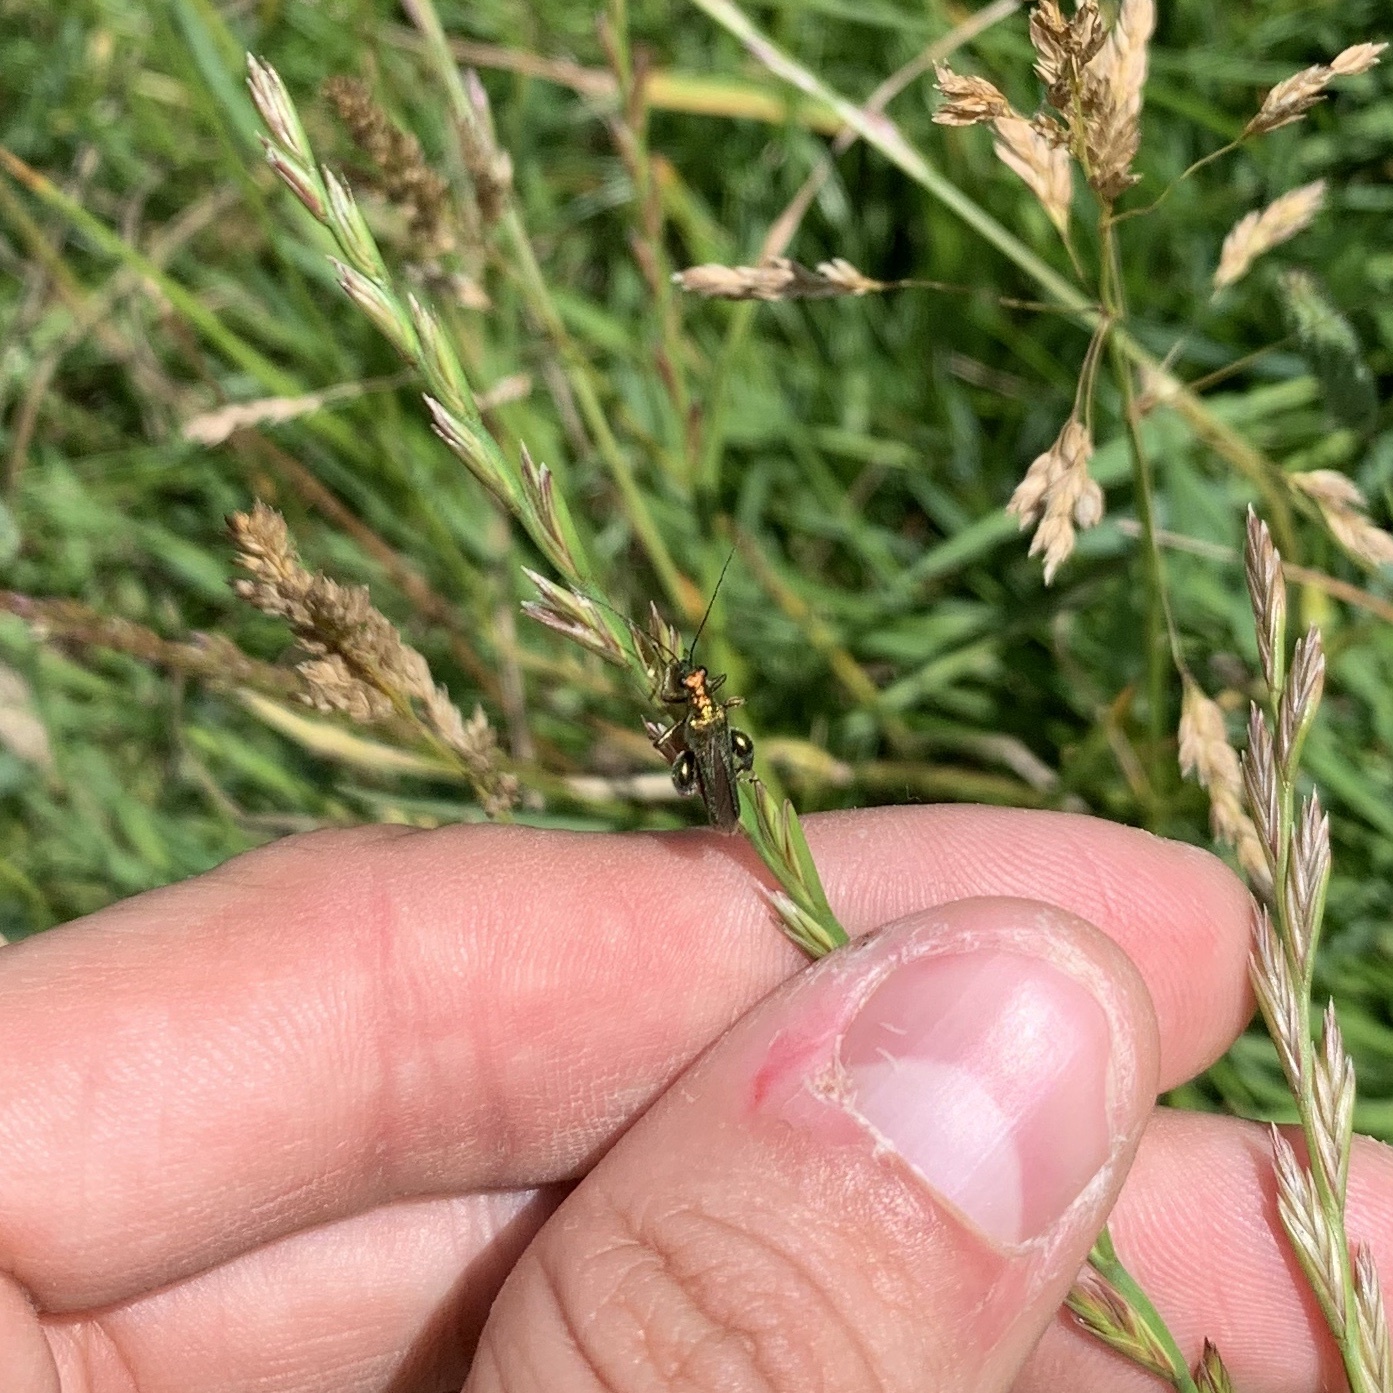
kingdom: Animalia
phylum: Arthropoda
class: Insecta
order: Coleoptera
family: Oedemeridae
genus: Oedemera
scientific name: Oedemera nobilis
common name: Swollen-thighed beetle
